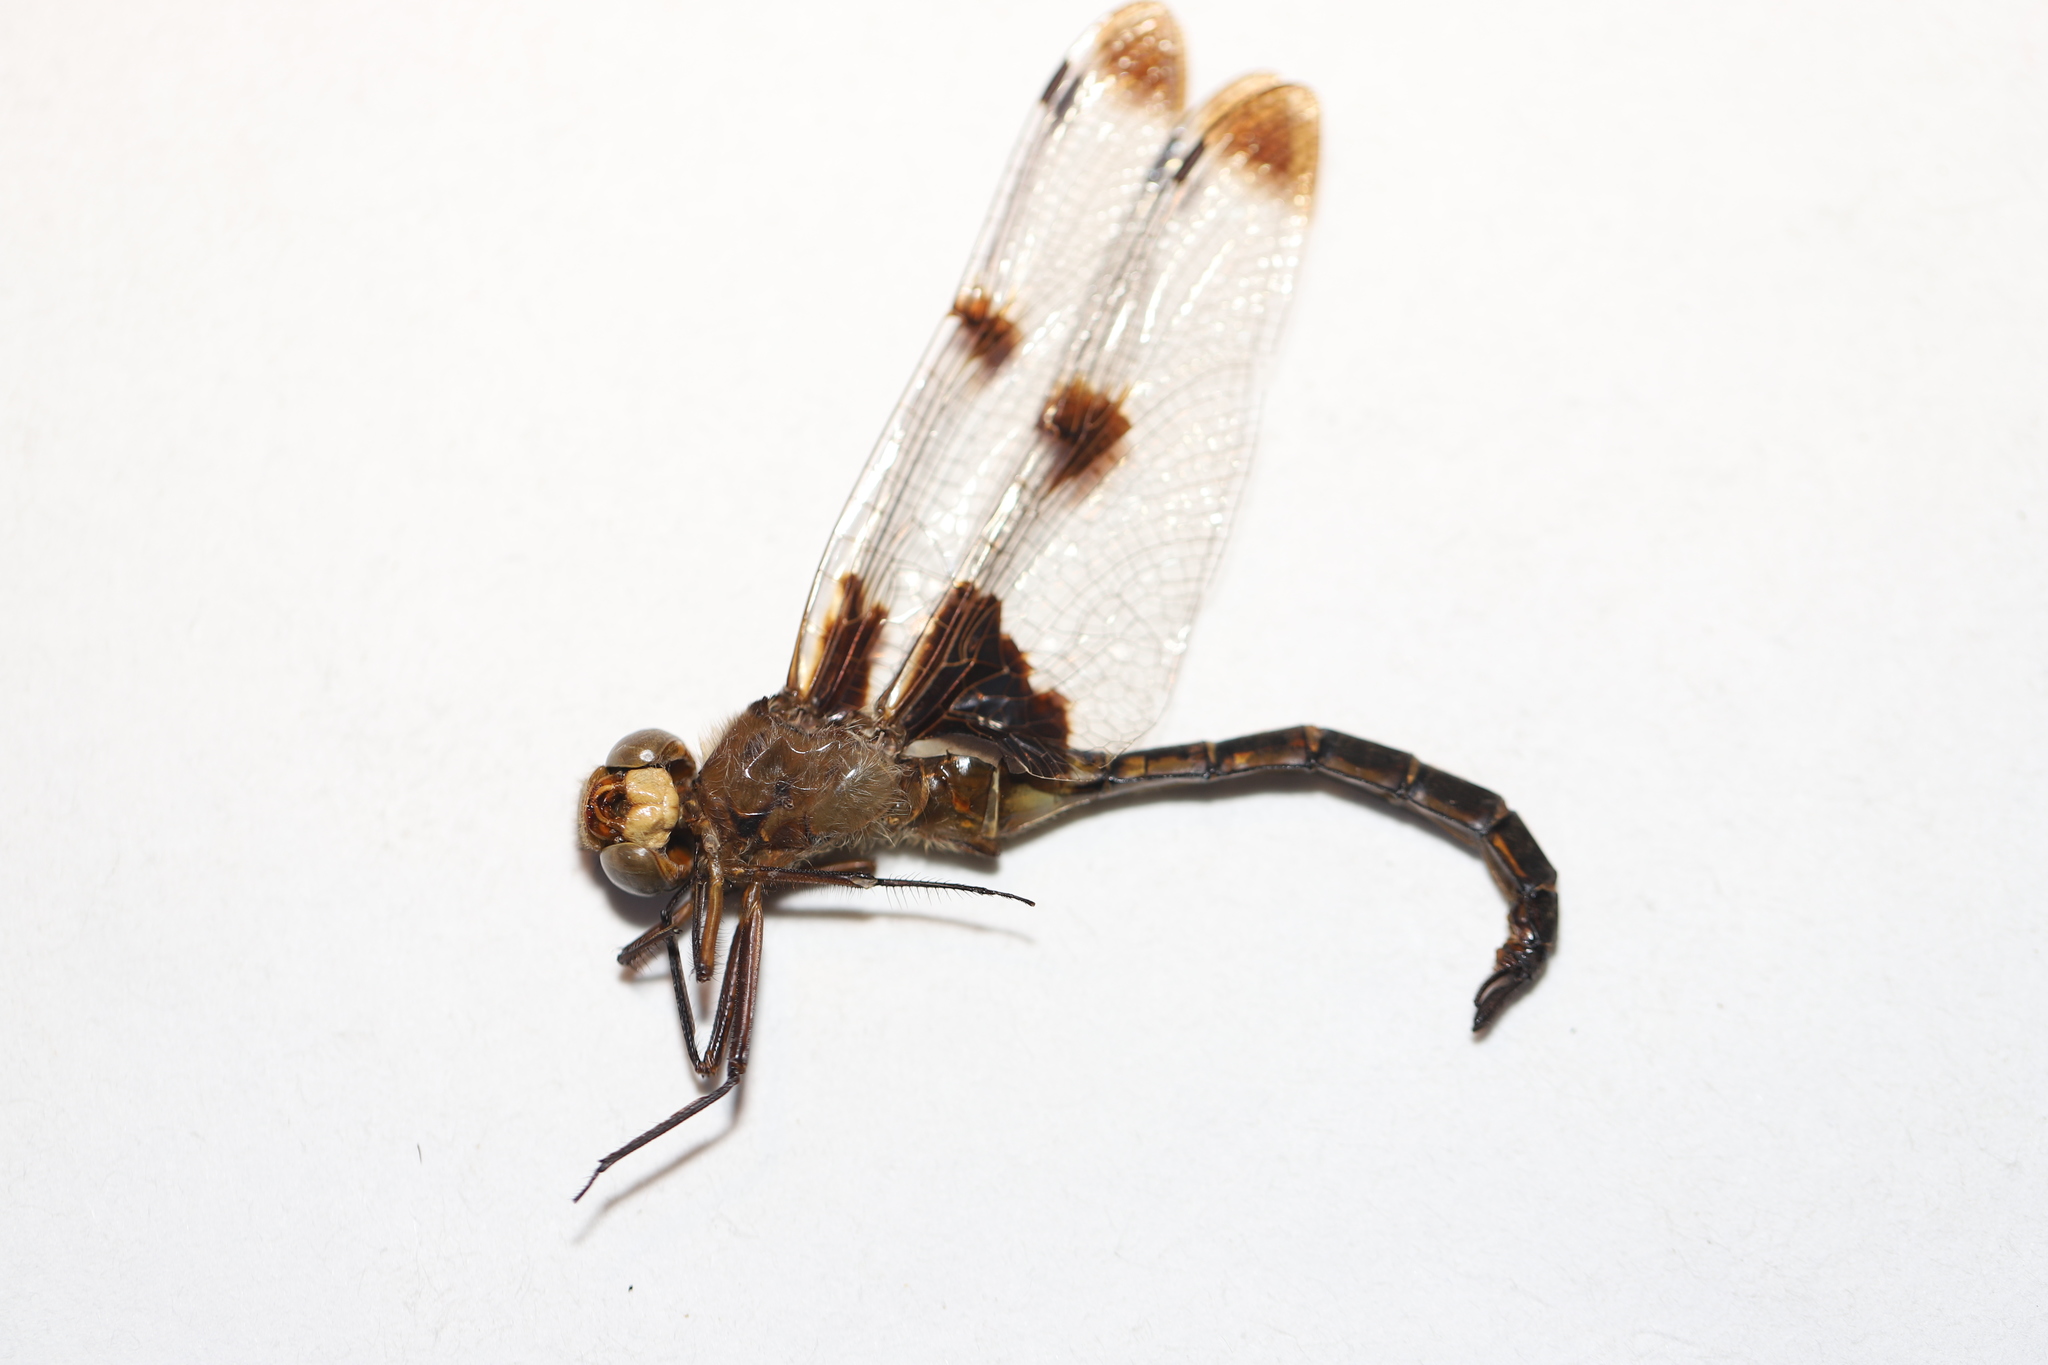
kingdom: Animalia
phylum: Arthropoda
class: Insecta
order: Odonata
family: Corduliidae
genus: Epitheca
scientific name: Epitheca princeps
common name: Prince baskettail
